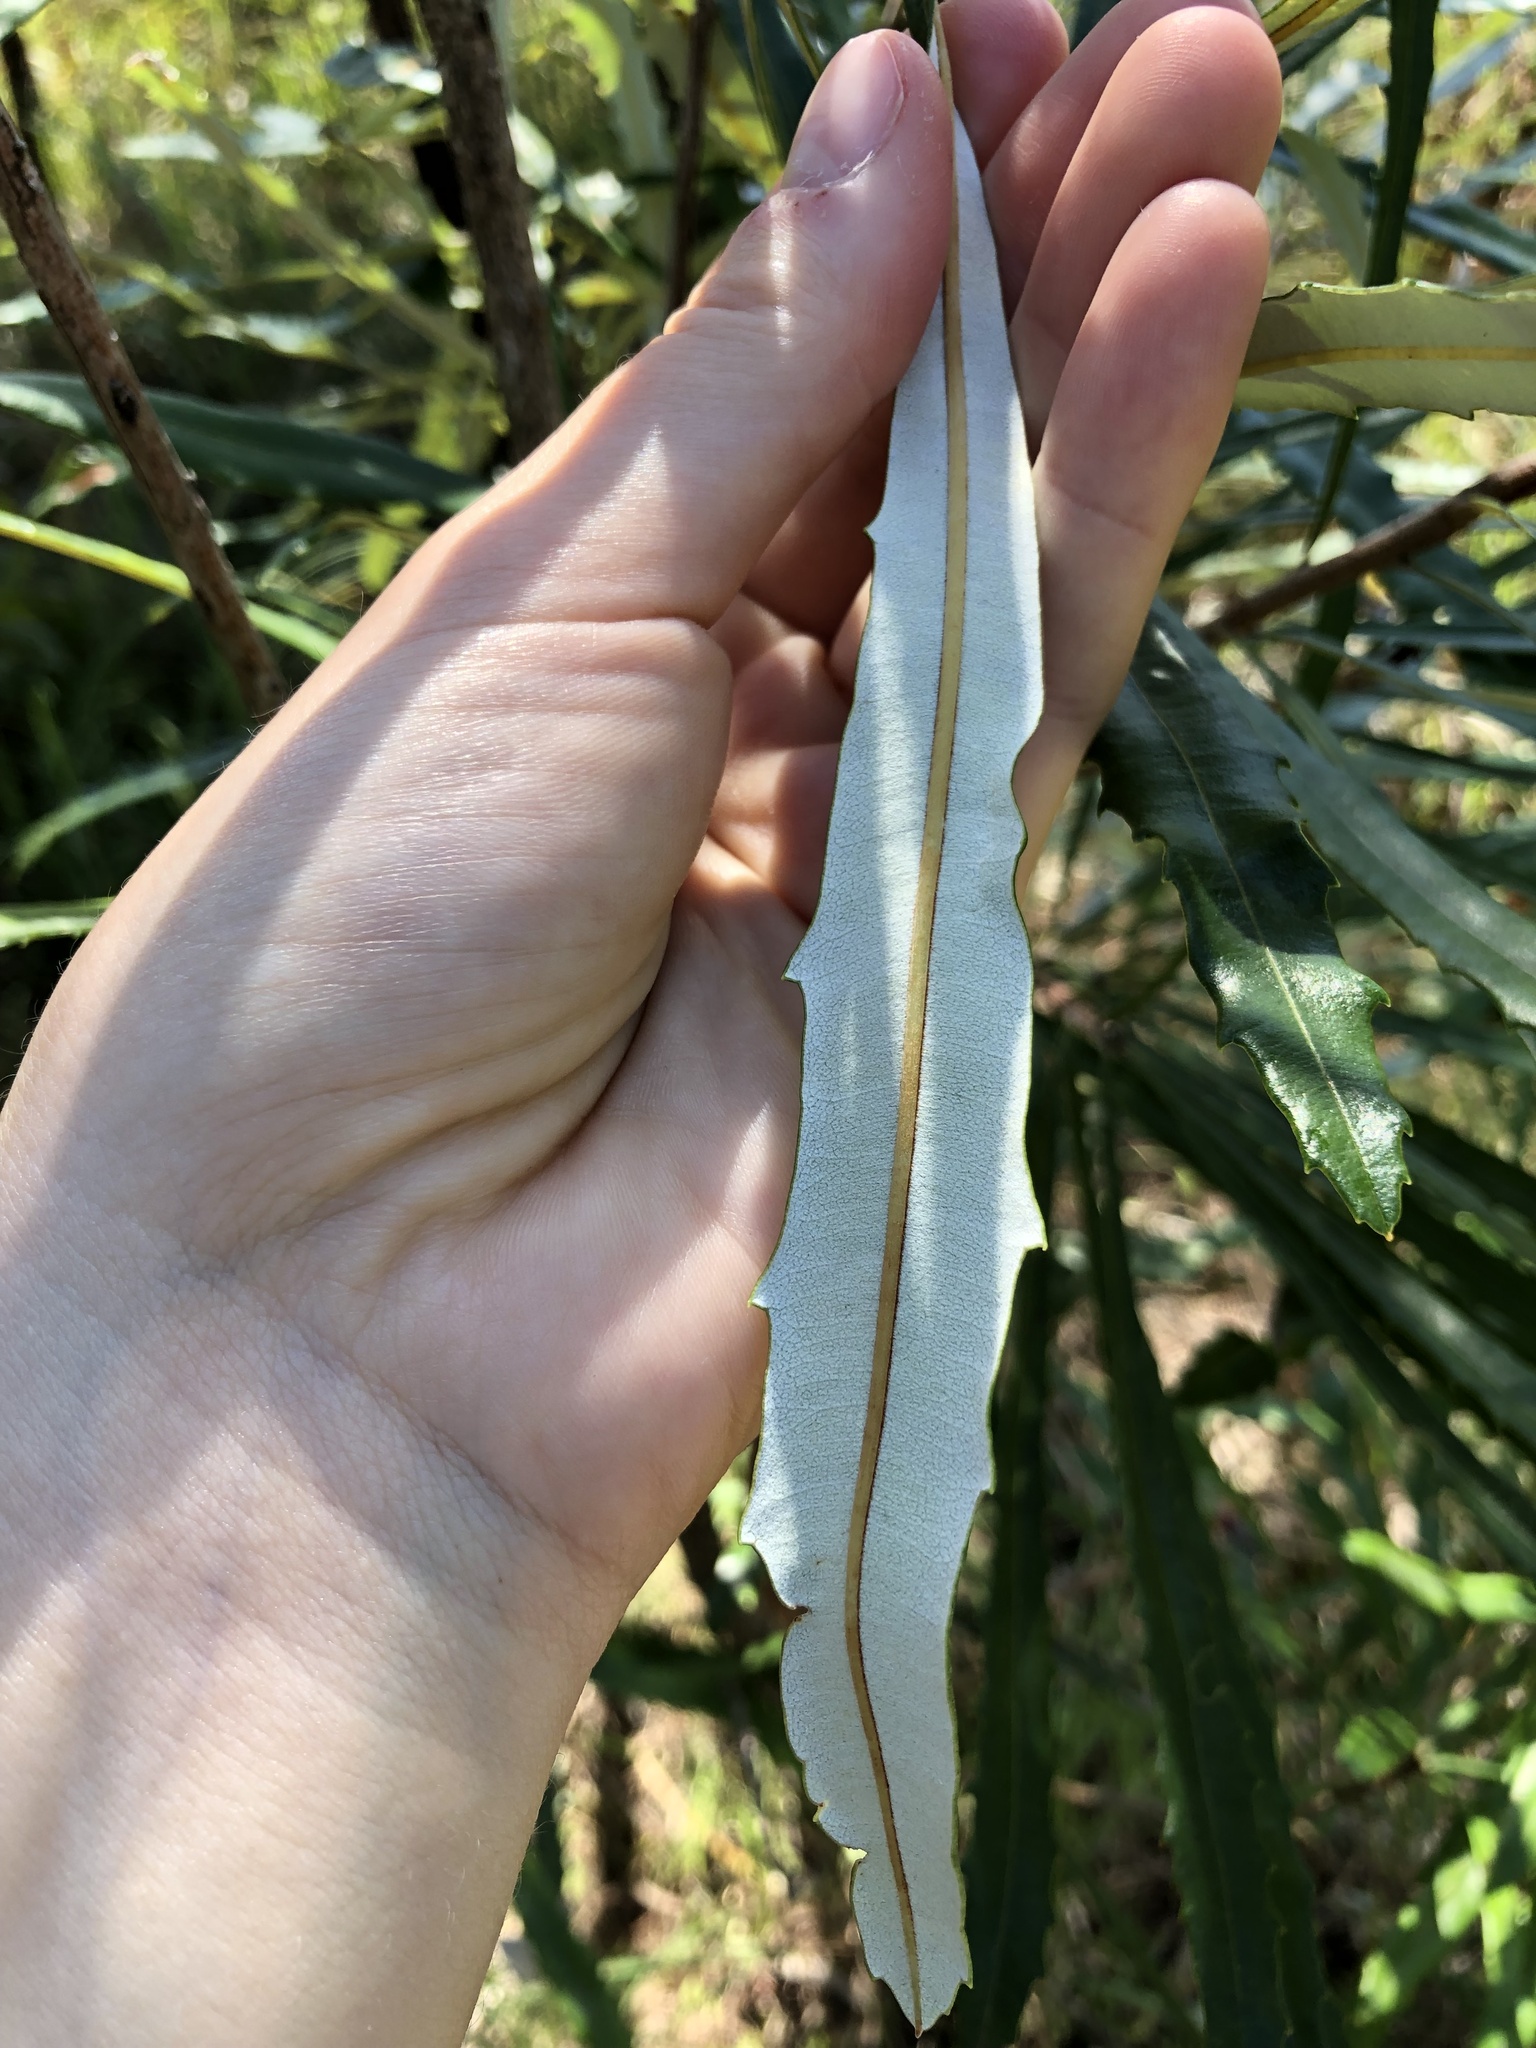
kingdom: Plantae
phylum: Tracheophyta
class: Magnoliopsida
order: Proteales
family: Proteaceae
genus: Banksia
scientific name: Banksia aquilonia
